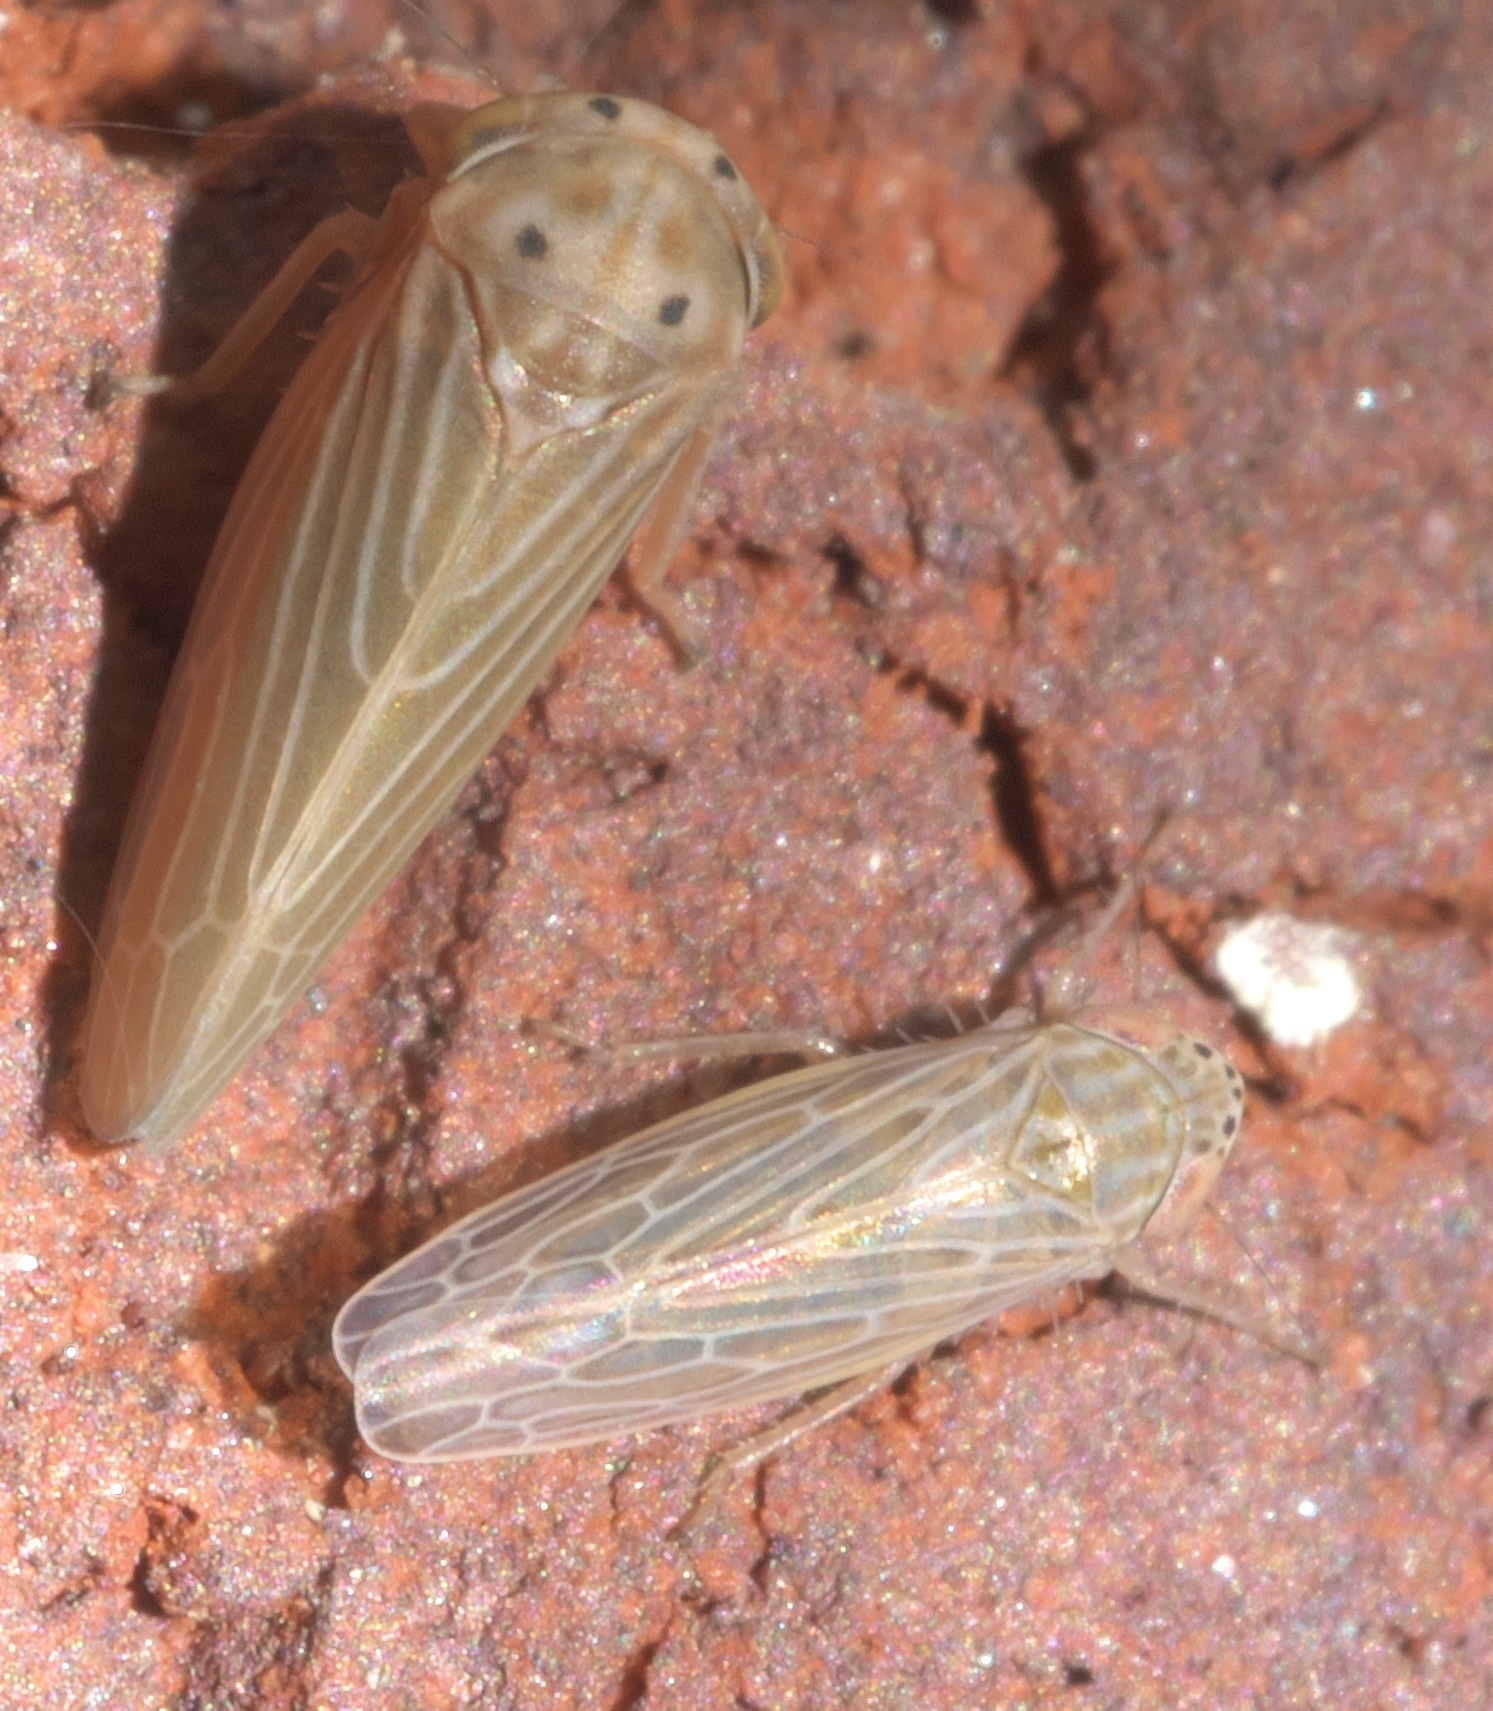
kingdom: Animalia
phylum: Arthropoda
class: Insecta
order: Hemiptera
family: Cicadellidae
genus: Graminella
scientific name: Graminella sonora
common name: Lesser lawn leafhopper
